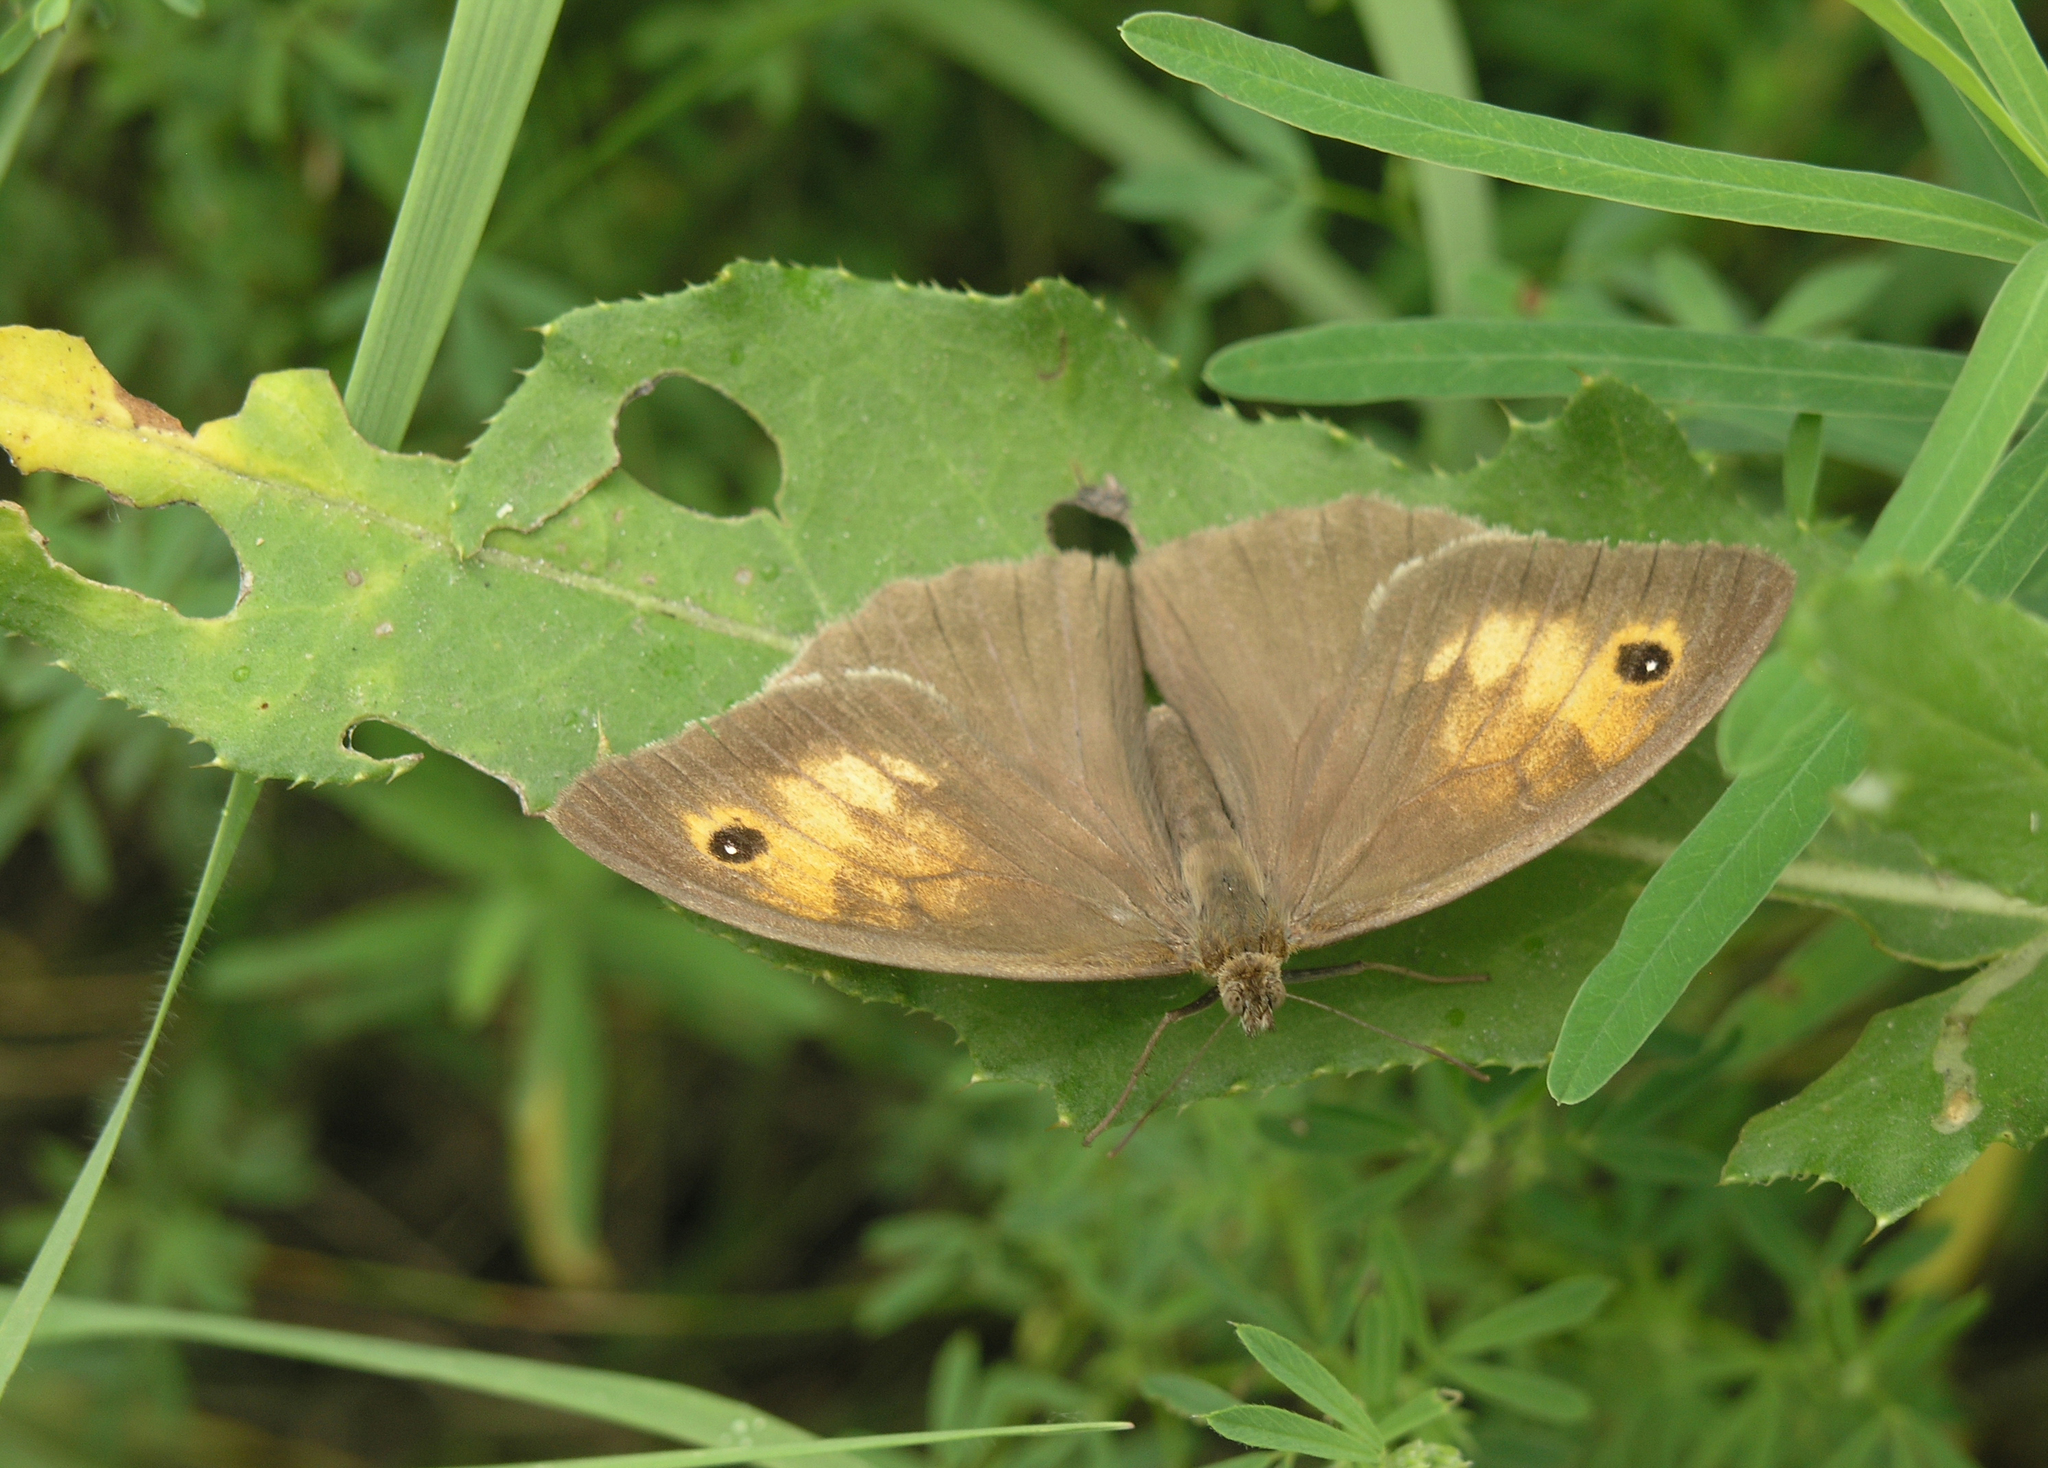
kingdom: Animalia
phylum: Arthropoda
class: Insecta
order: Lepidoptera
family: Nymphalidae
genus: Maniola
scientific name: Maniola jurtina
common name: Meadow brown
